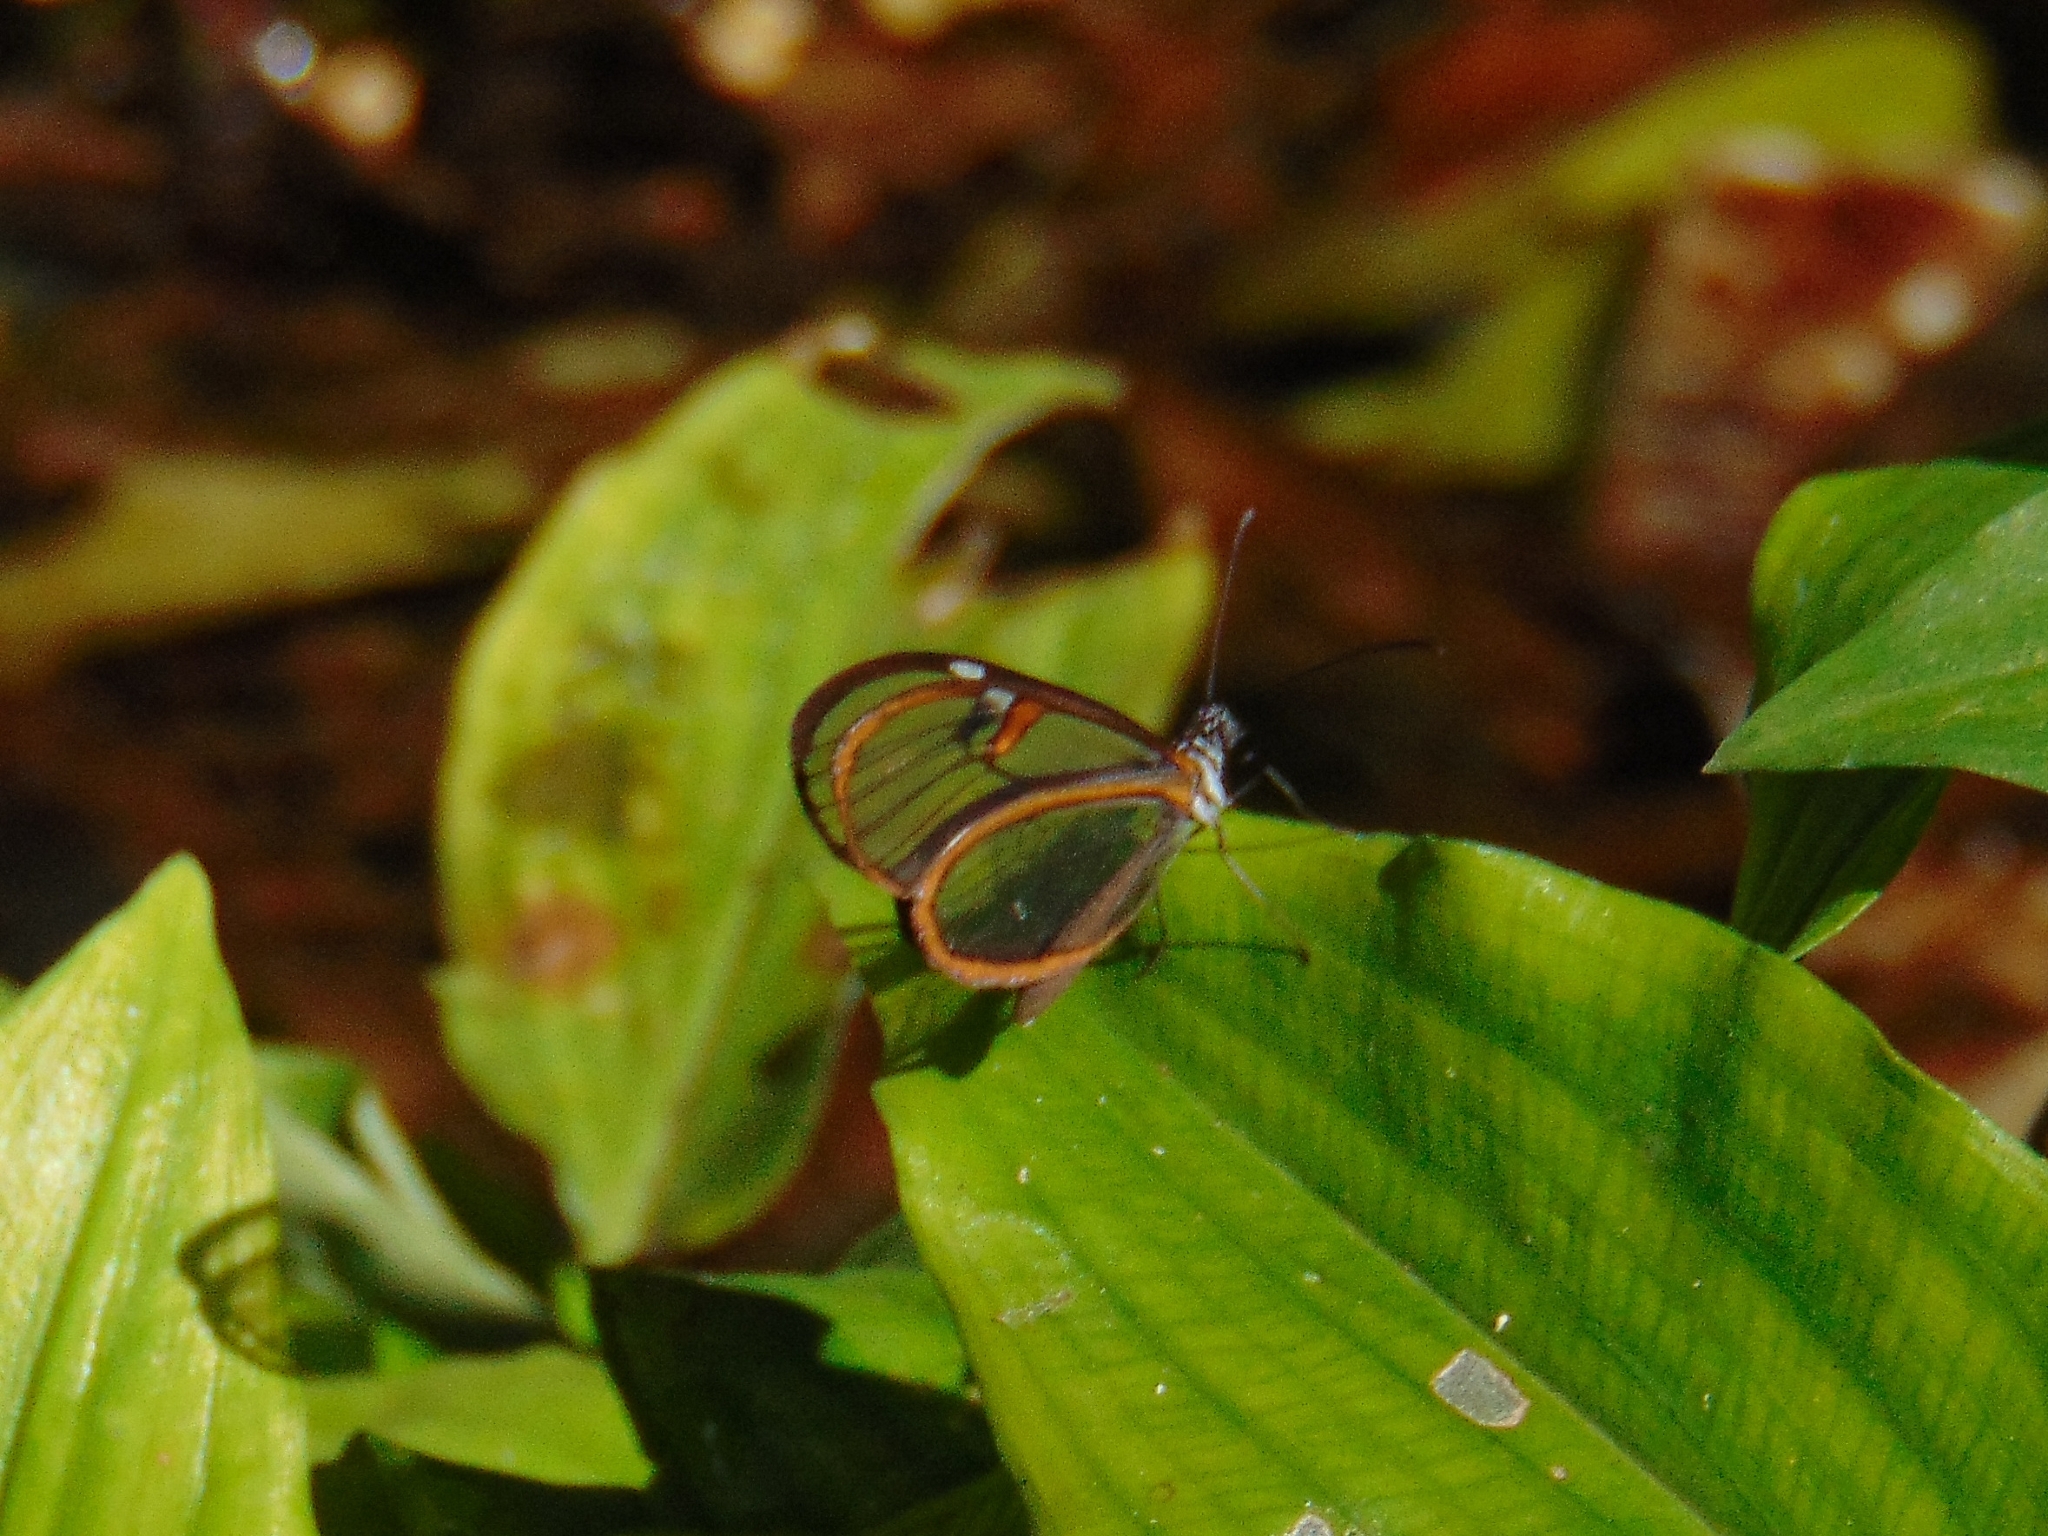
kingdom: Animalia
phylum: Arthropoda
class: Insecta
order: Lepidoptera
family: Nymphalidae
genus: Pteronymia
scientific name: Pteronymia carlia
